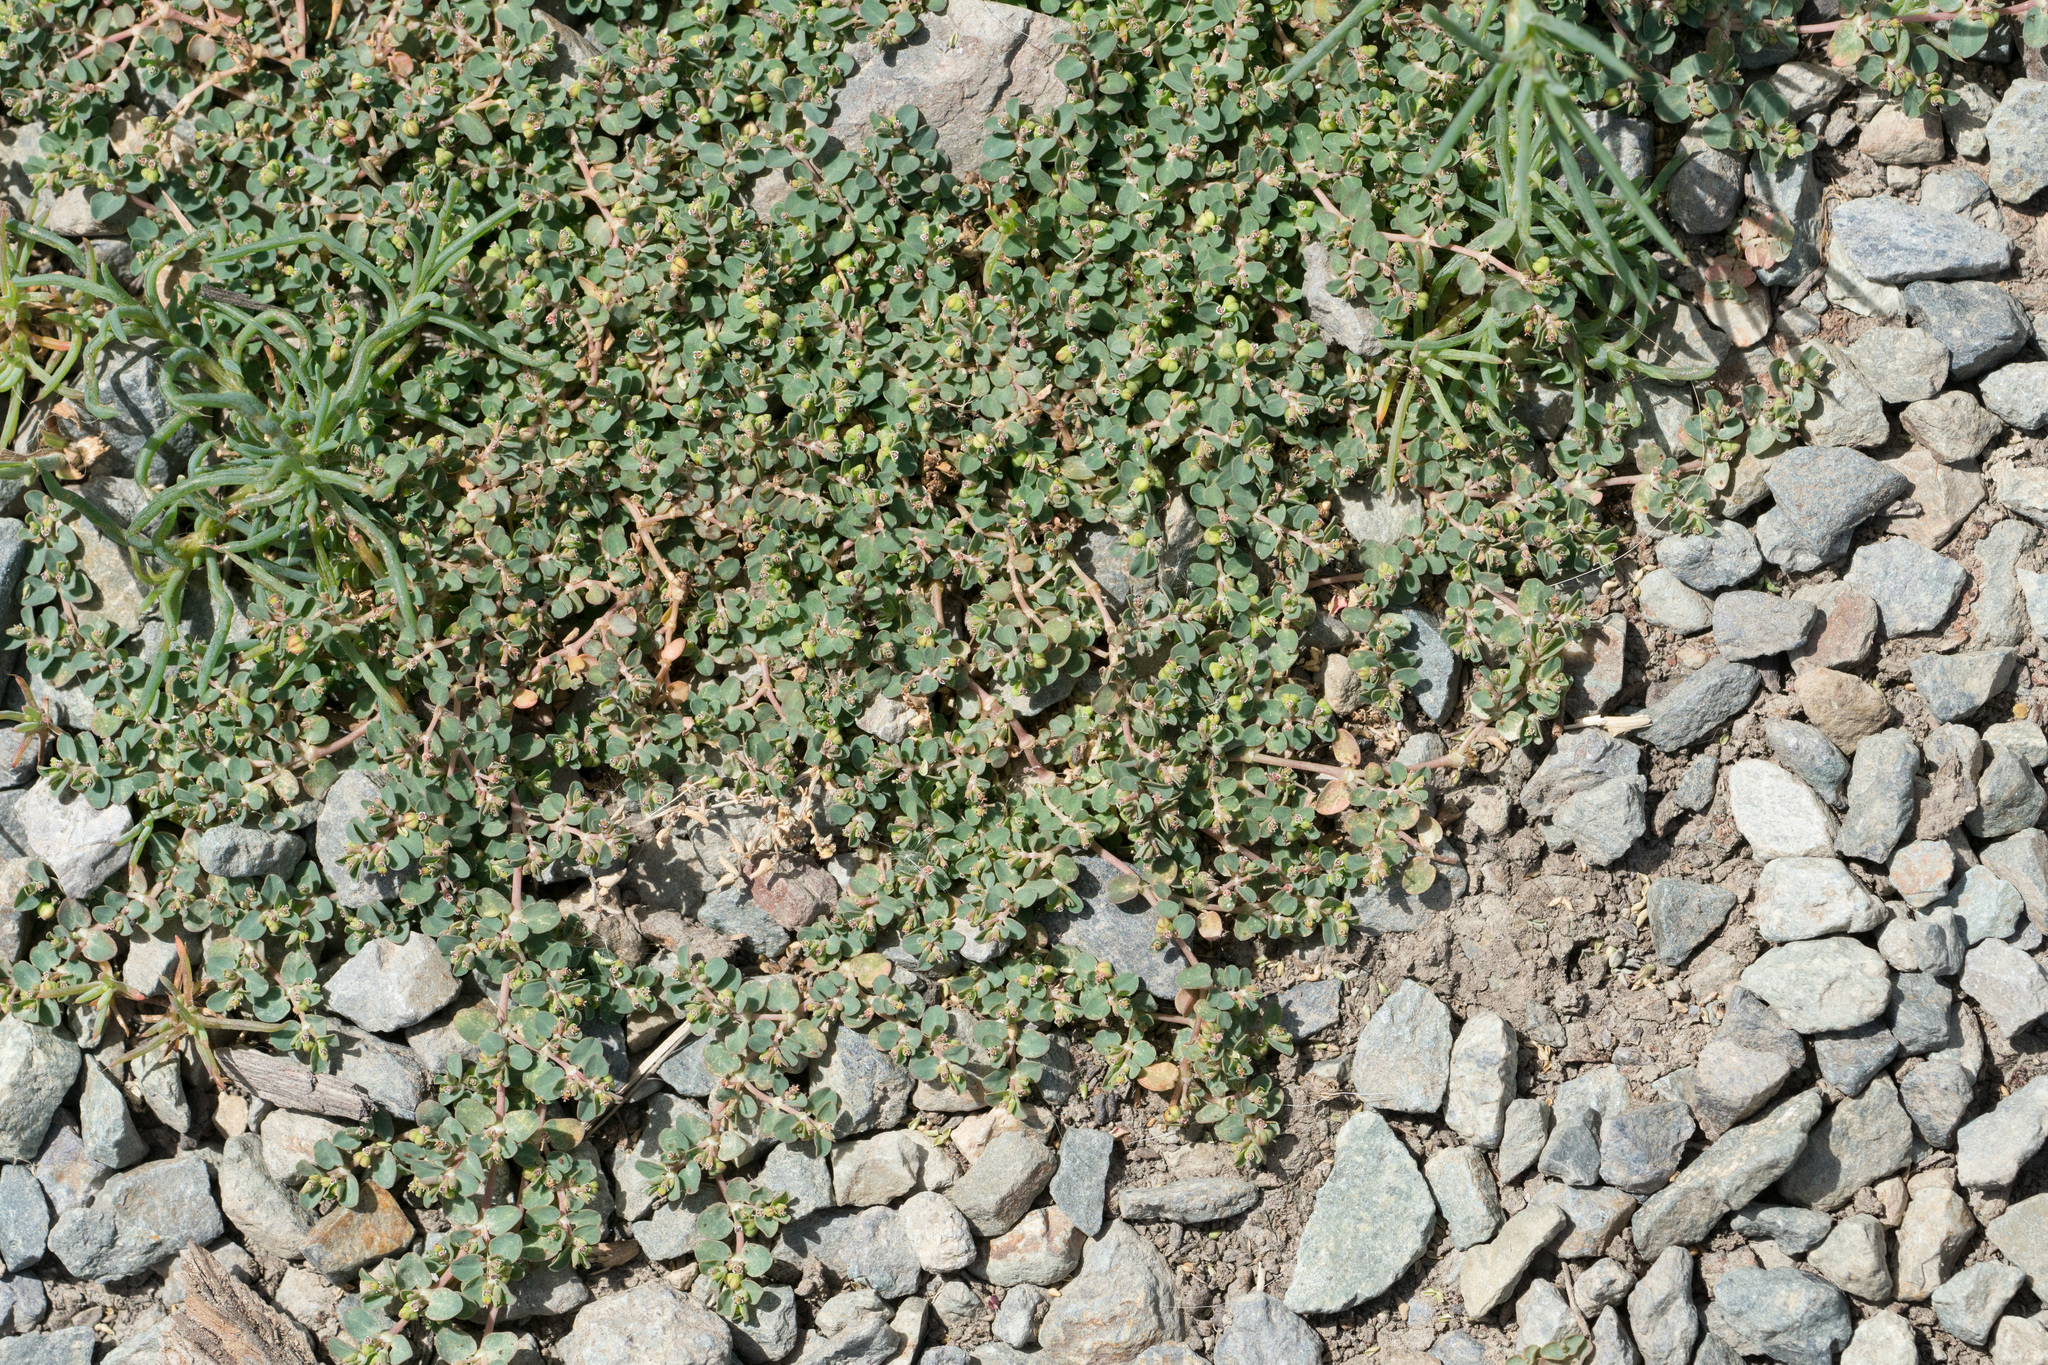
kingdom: Plantae
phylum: Tracheophyta
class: Magnoliopsida
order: Malpighiales
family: Euphorbiaceae
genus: Euphorbia
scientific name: Euphorbia serpens
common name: Matted sandmat
